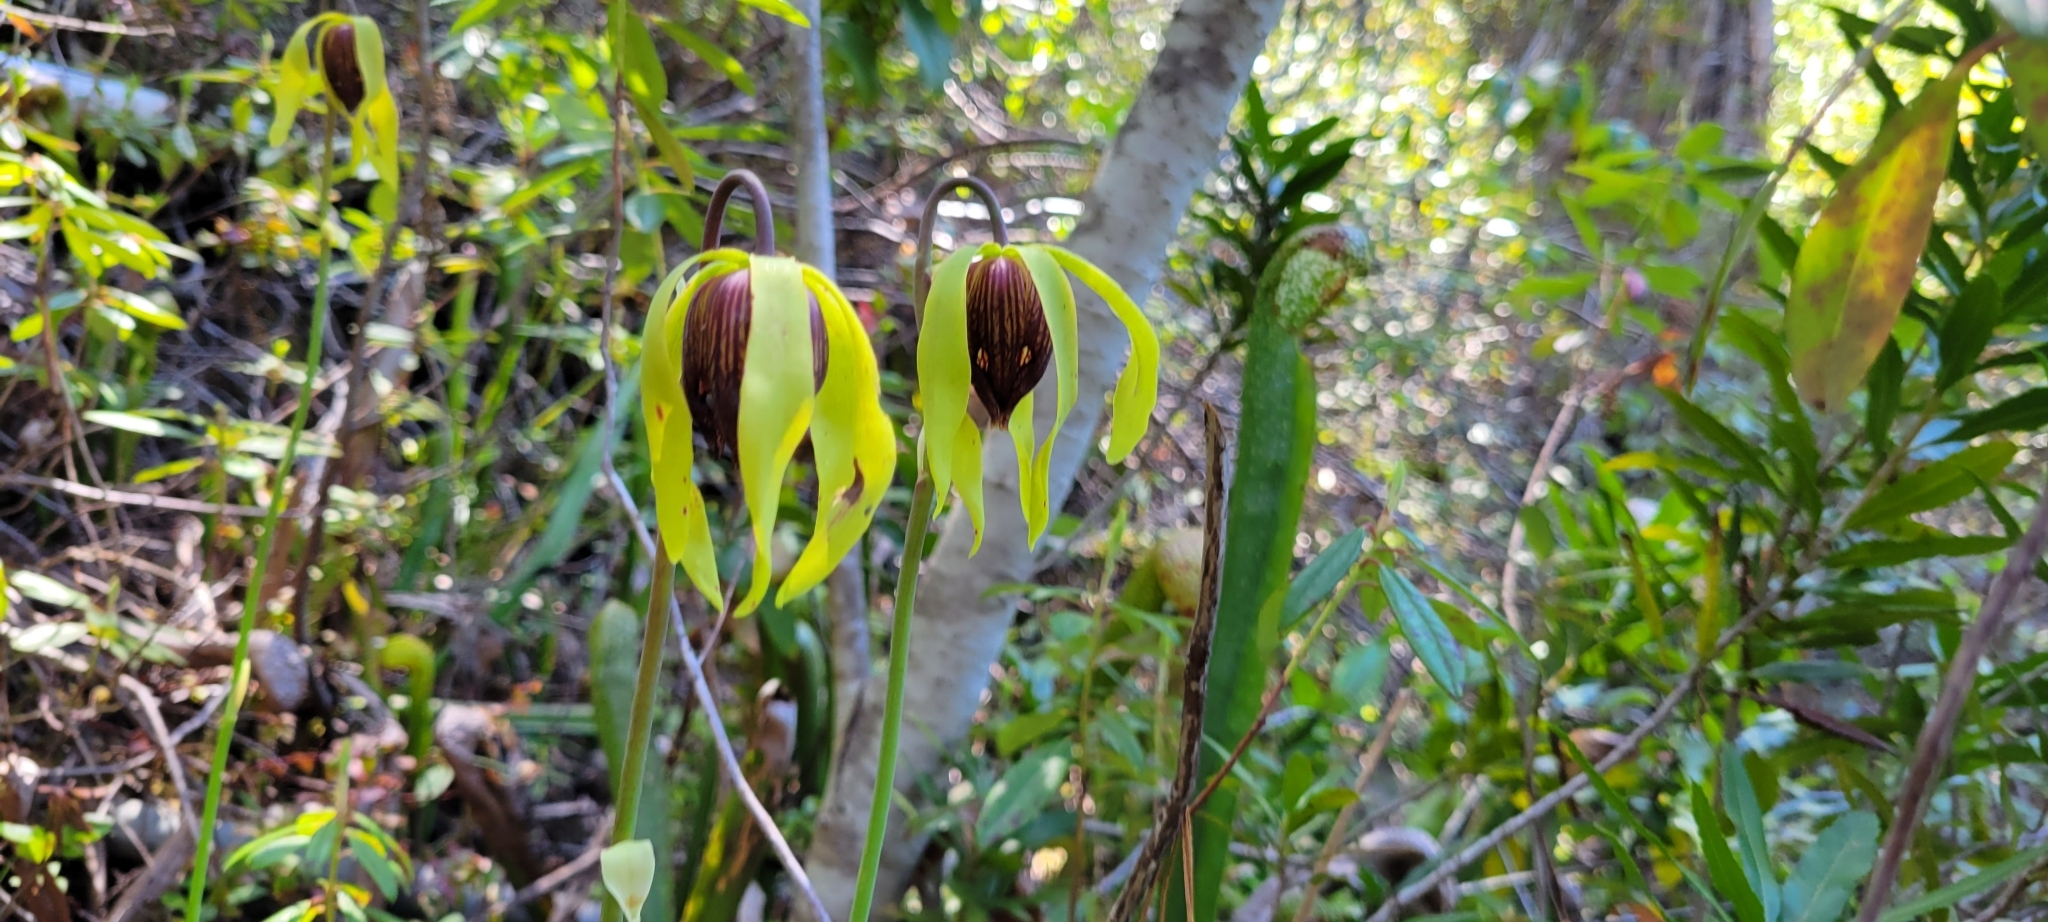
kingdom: Plantae
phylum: Tracheophyta
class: Magnoliopsida
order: Ericales
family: Sarraceniaceae
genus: Darlingtonia
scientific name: Darlingtonia californica
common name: California pitcher plant
